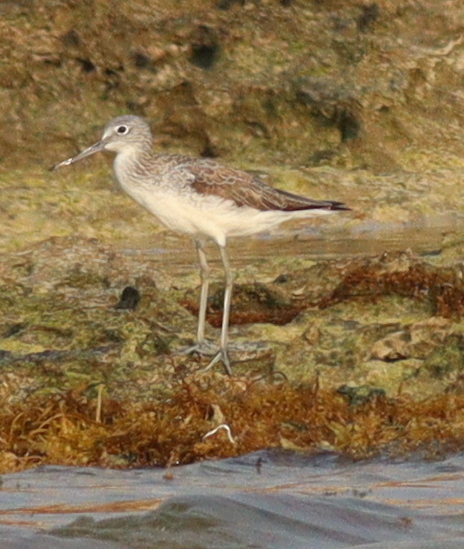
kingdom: Animalia
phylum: Chordata
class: Aves
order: Charadriiformes
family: Scolopacidae
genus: Tringa
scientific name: Tringa nebularia
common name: Common greenshank
